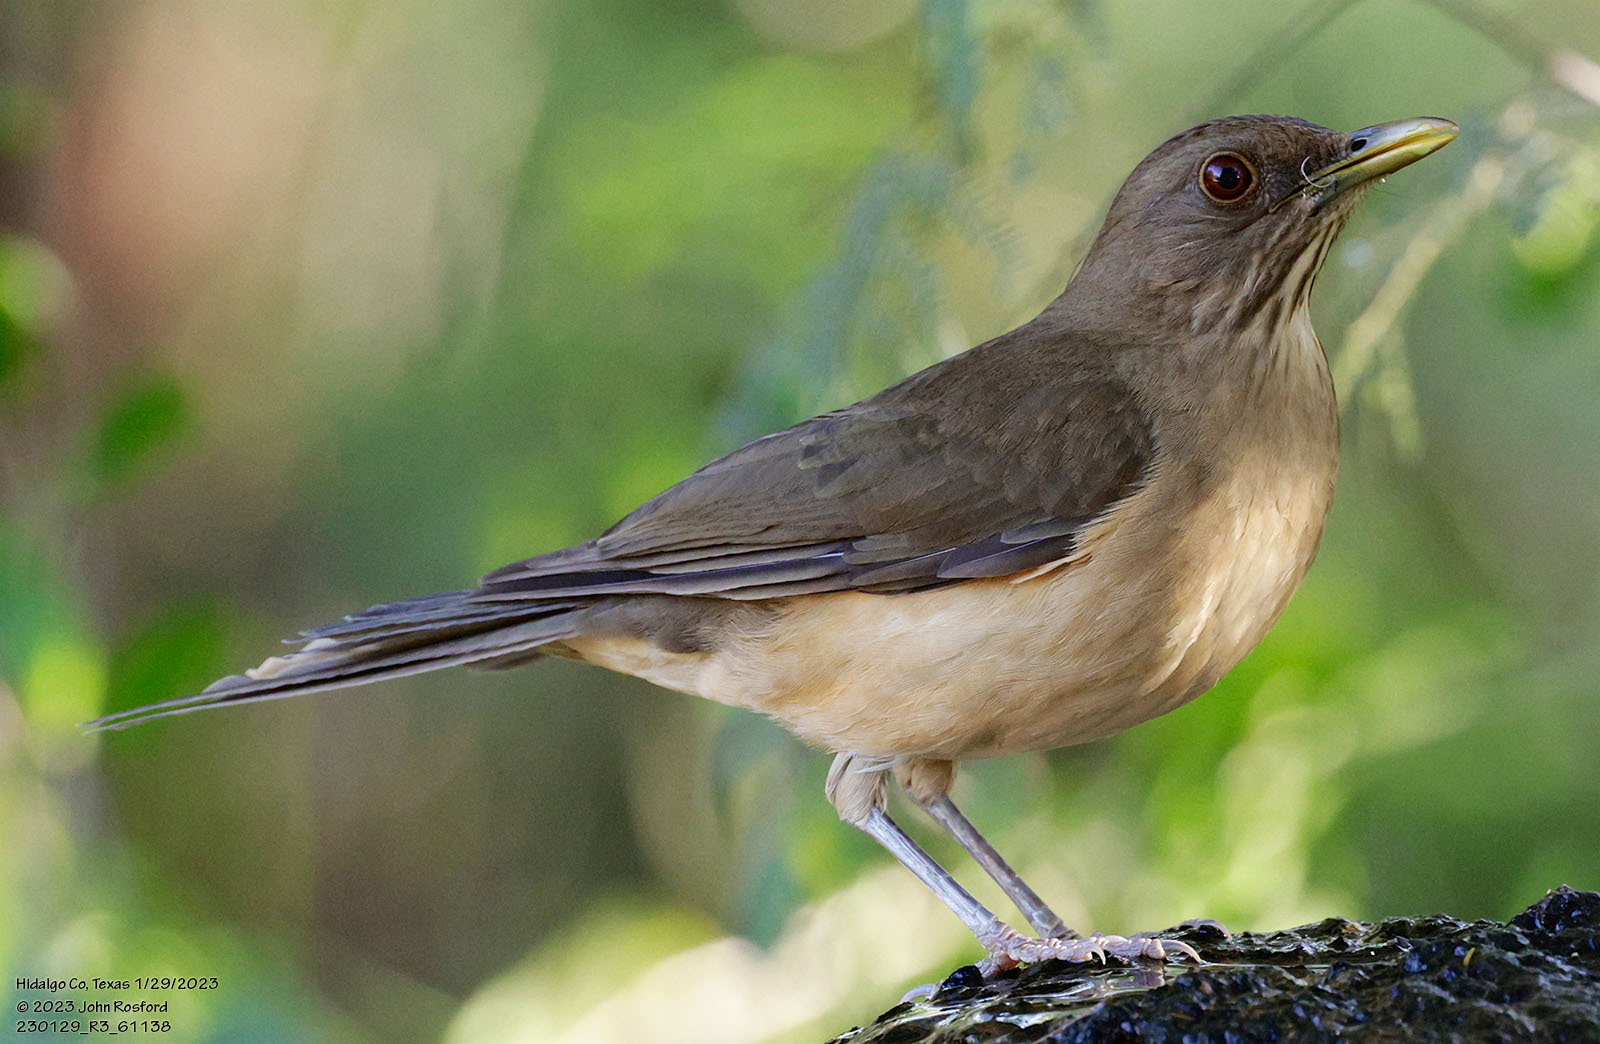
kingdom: Animalia
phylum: Chordata
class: Aves
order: Passeriformes
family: Turdidae
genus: Turdus
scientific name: Turdus grayi
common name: Clay-colored thrush
